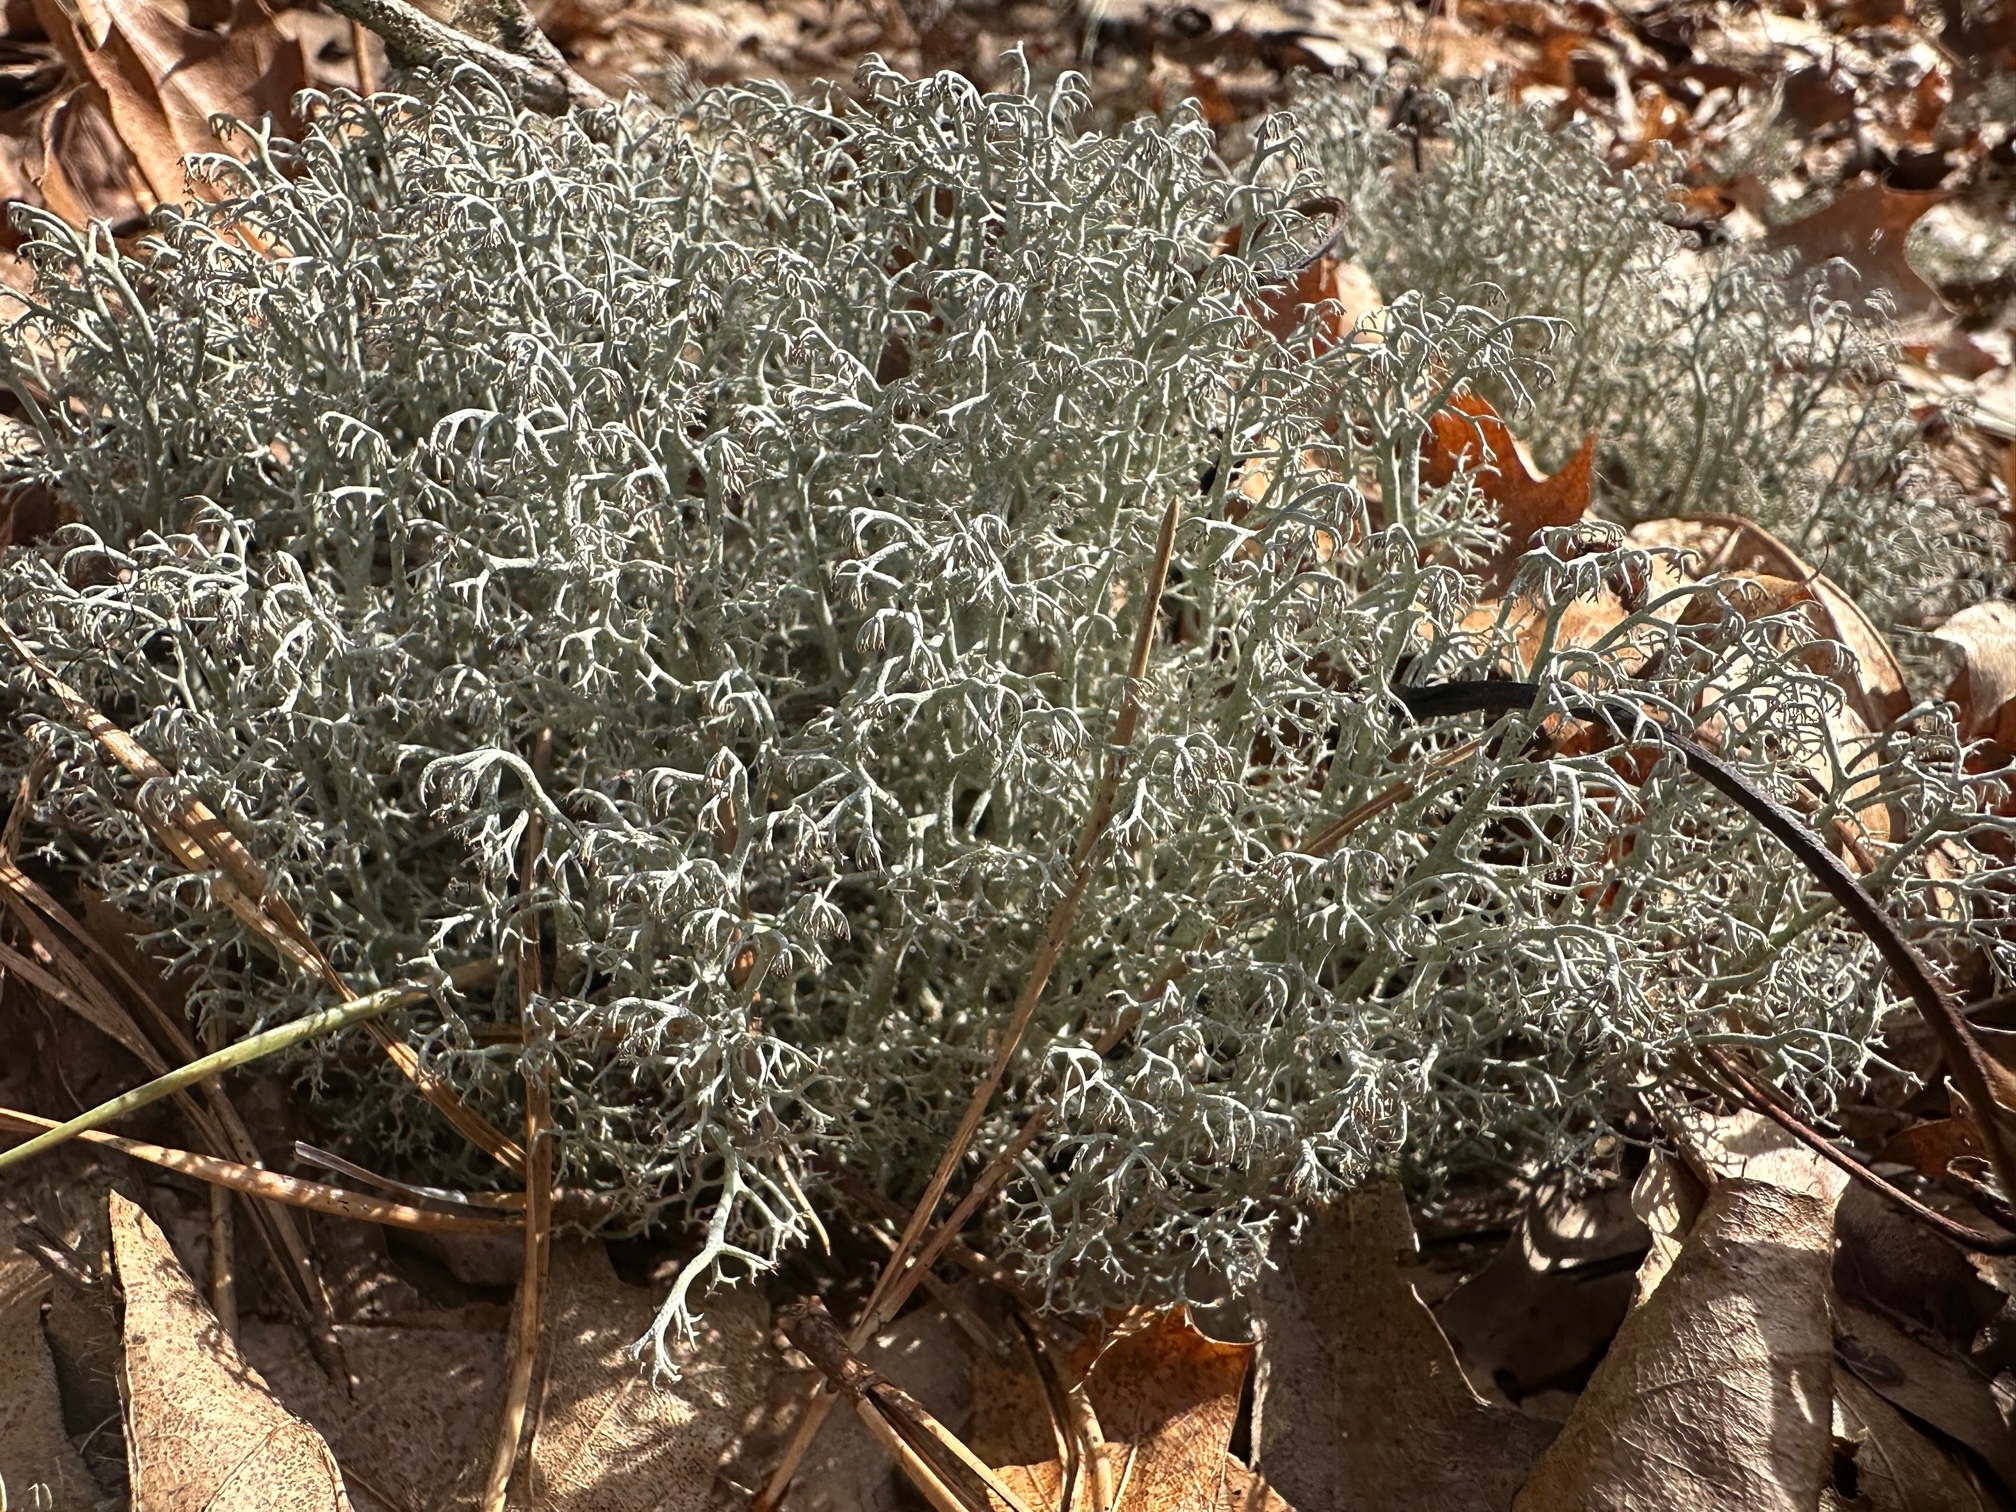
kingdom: Fungi
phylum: Ascomycota
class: Lecanoromycetes
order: Lecanorales
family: Cladoniaceae
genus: Cladonia
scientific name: Cladonia rangiferina
